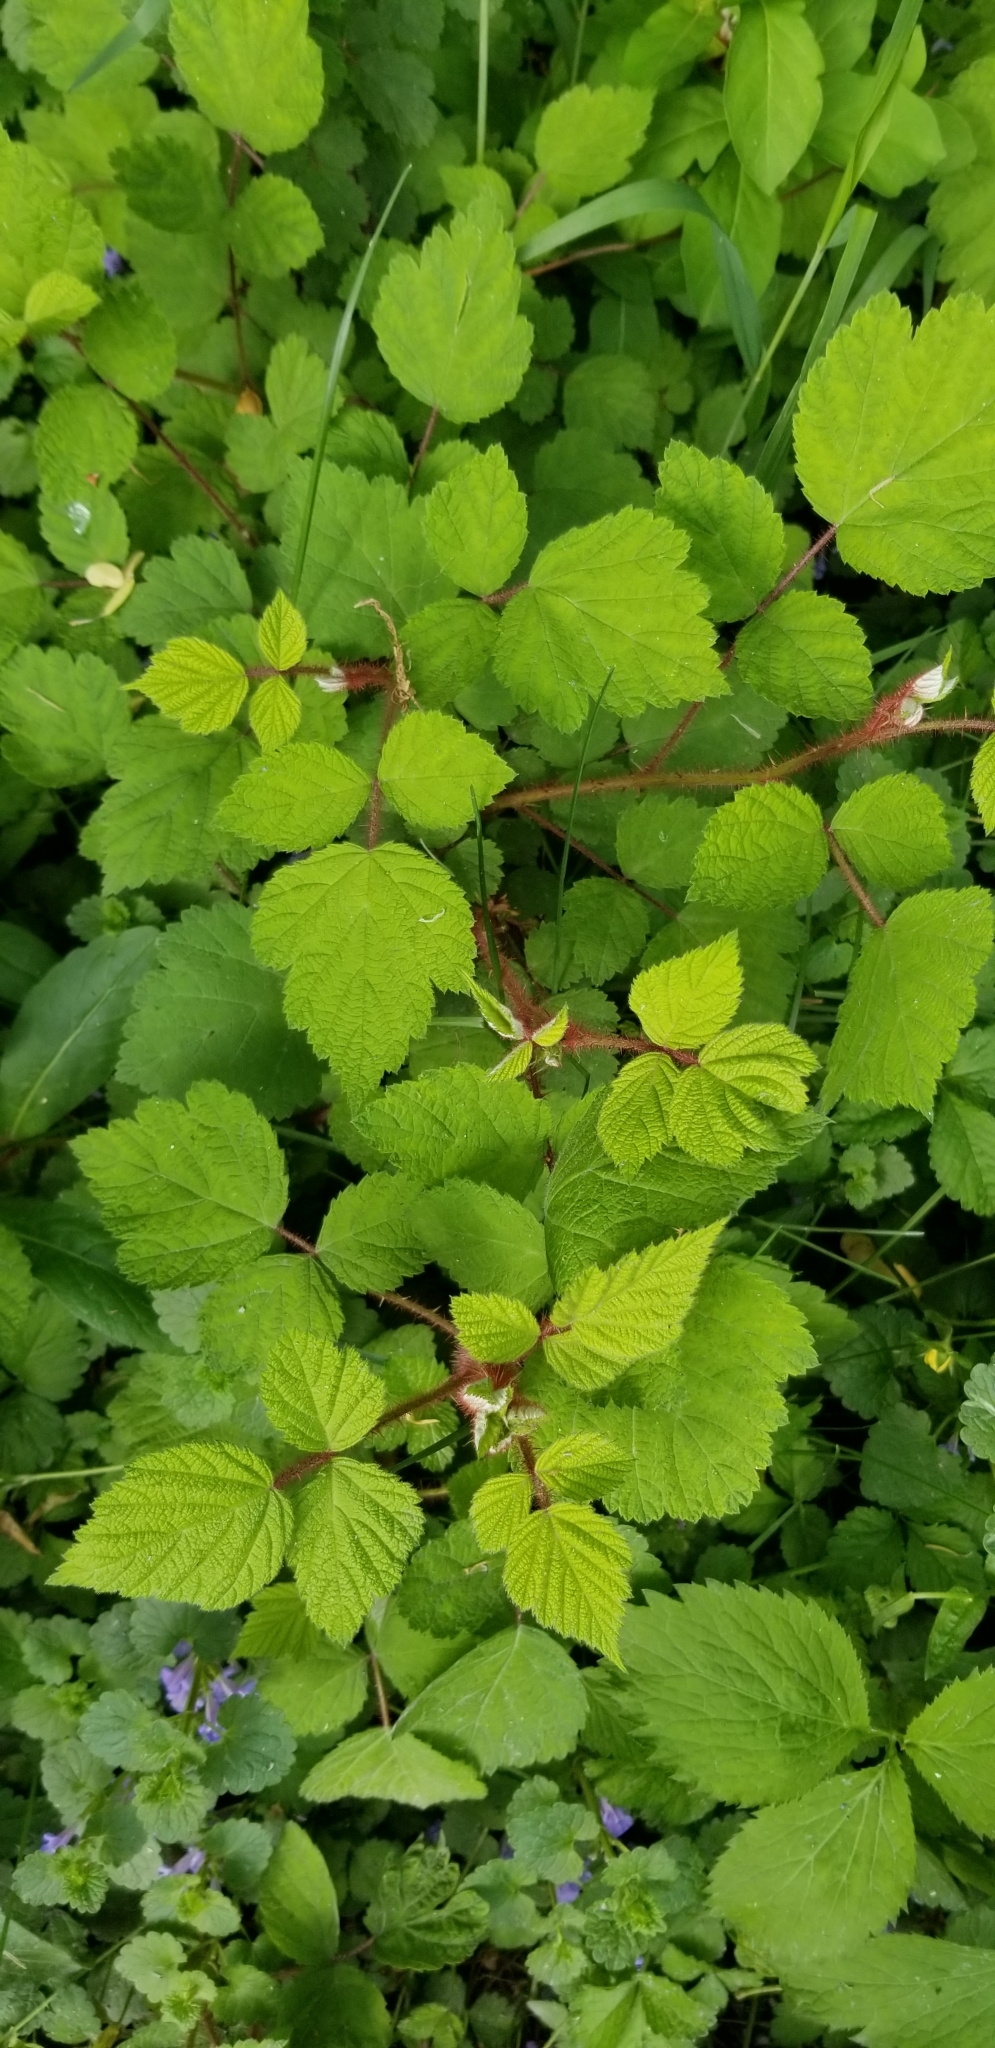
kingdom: Plantae
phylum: Tracheophyta
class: Magnoliopsida
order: Rosales
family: Rosaceae
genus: Rubus
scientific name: Rubus phoenicolasius
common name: Japanese wineberry
